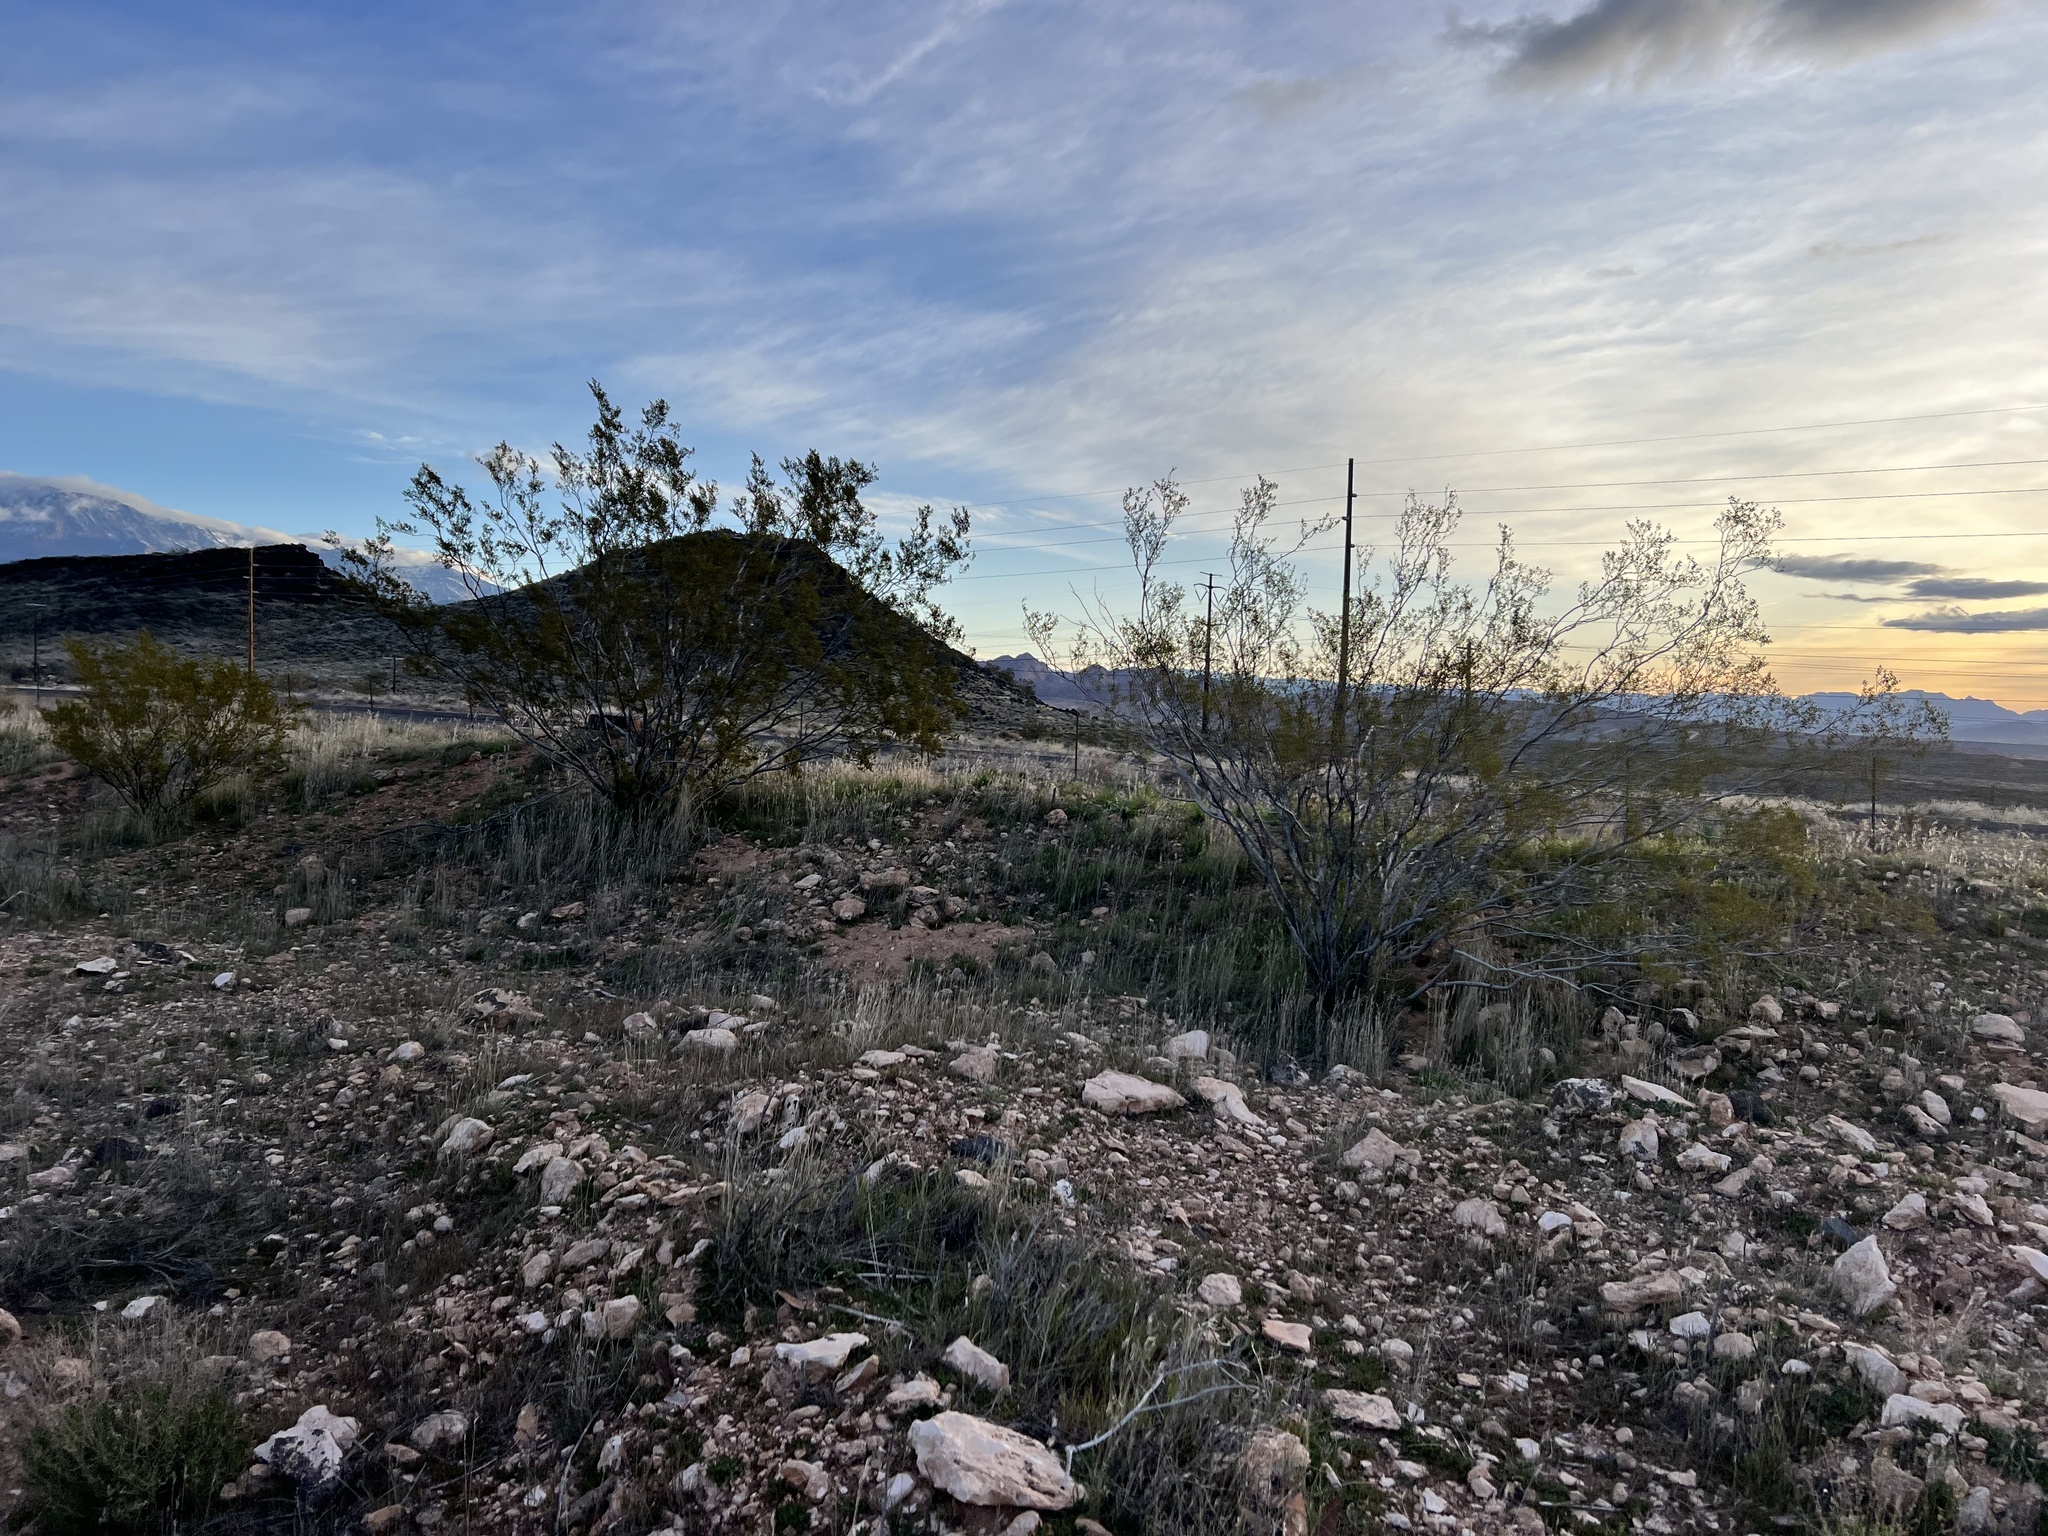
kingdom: Plantae
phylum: Tracheophyta
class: Magnoliopsida
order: Zygophyllales
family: Zygophyllaceae
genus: Larrea
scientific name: Larrea tridentata
